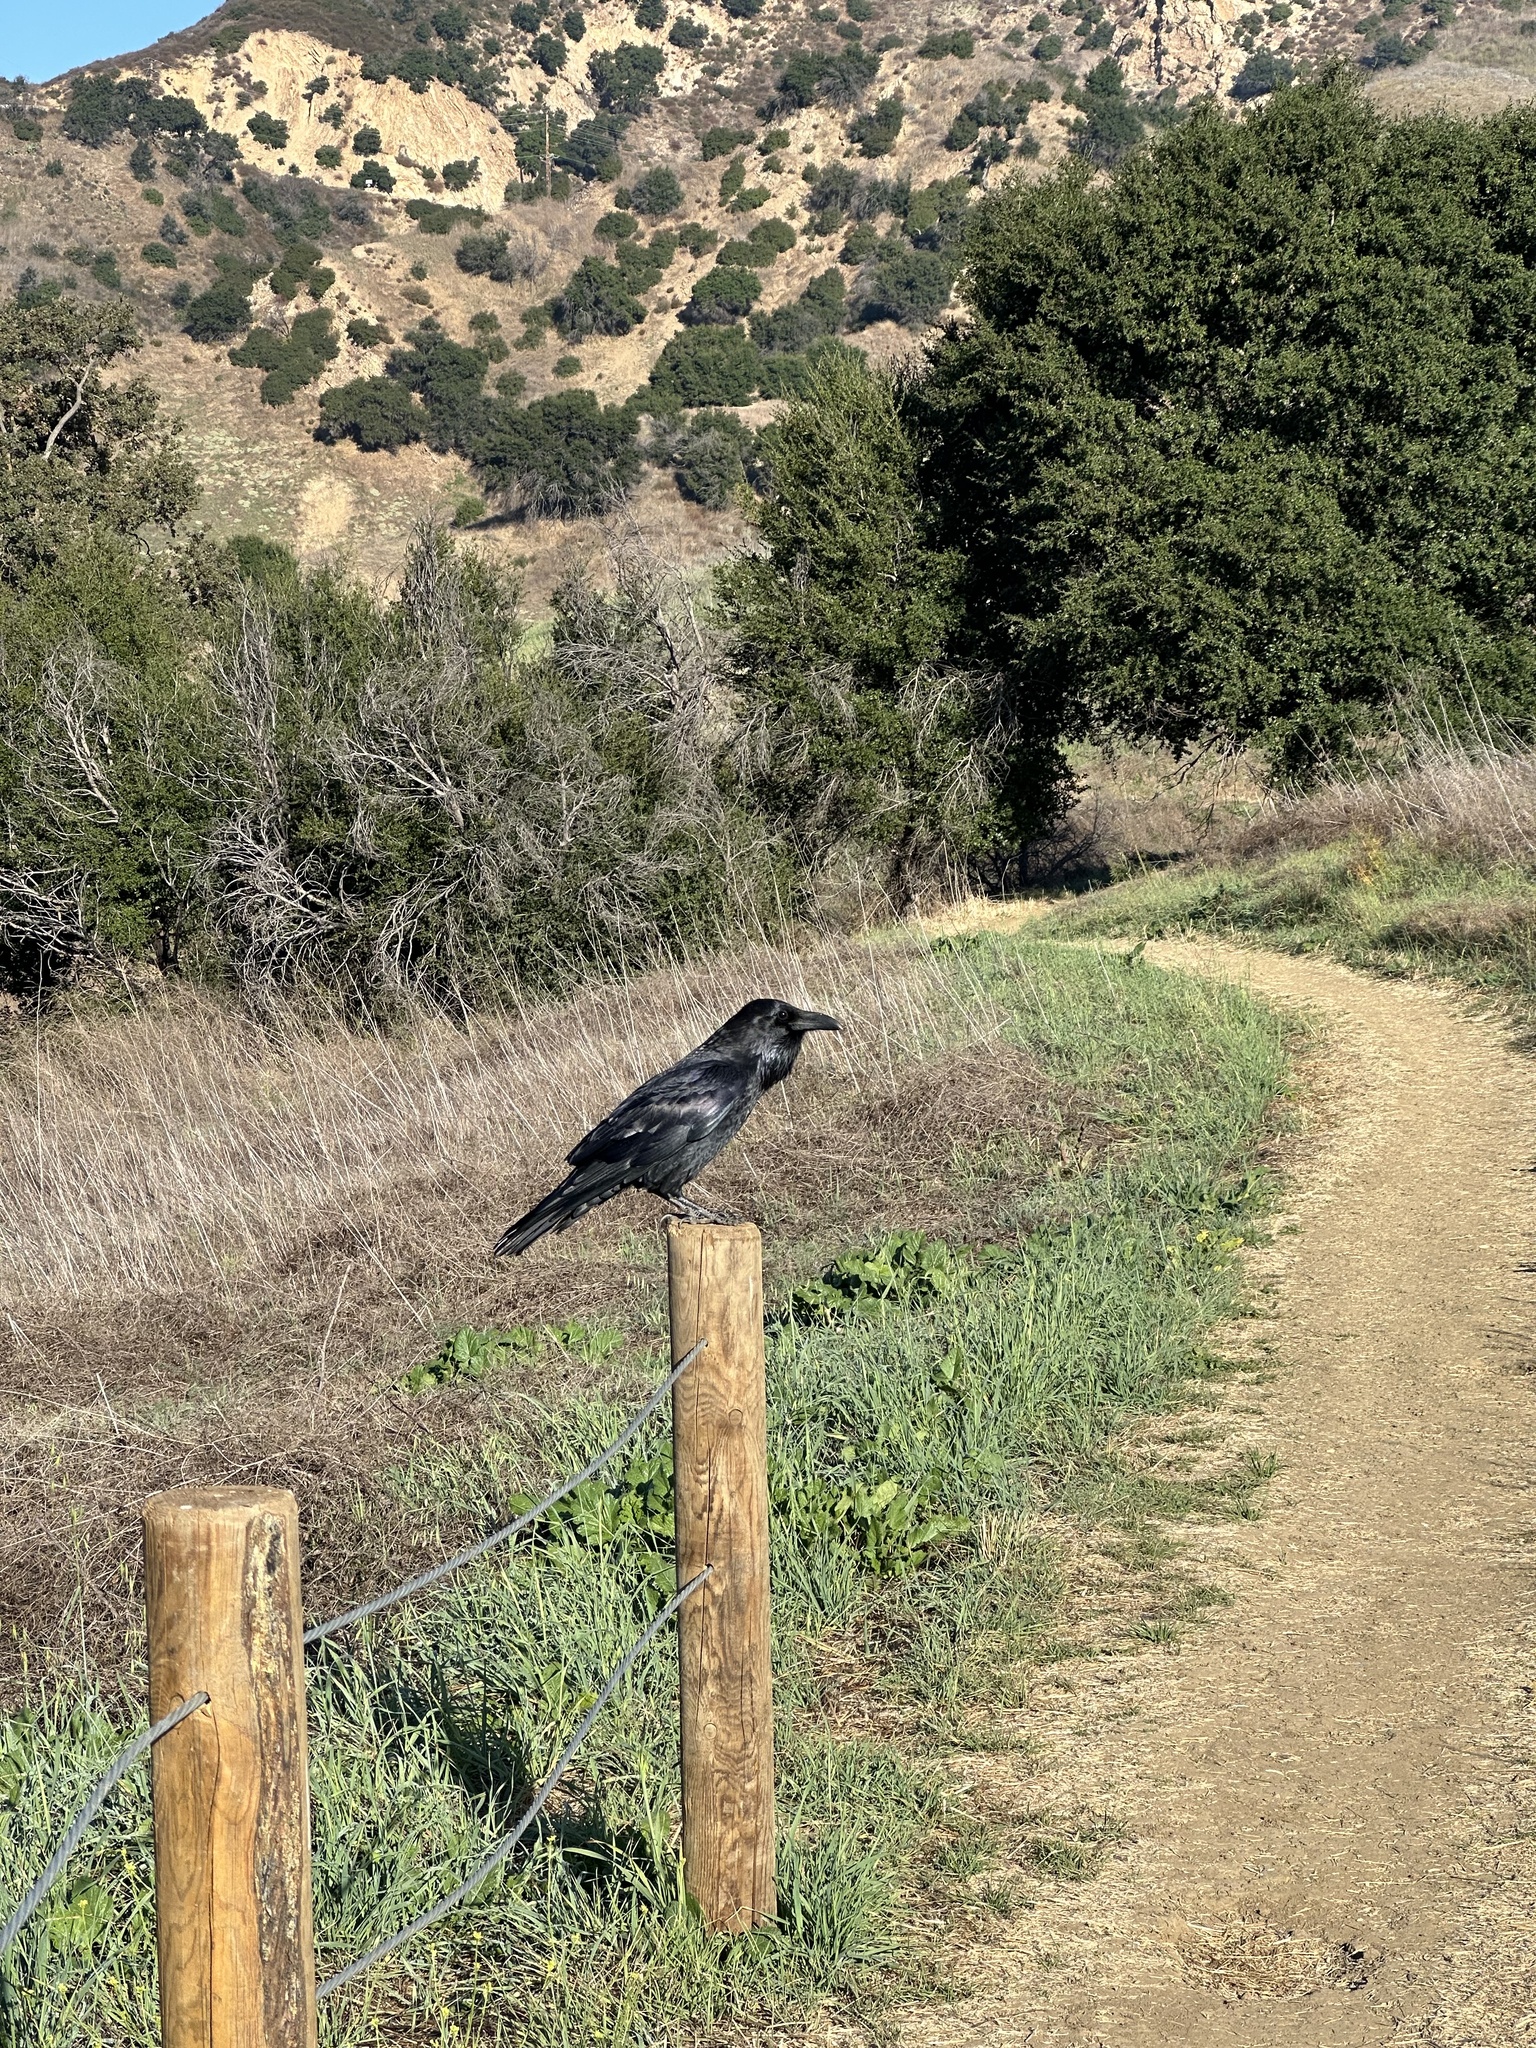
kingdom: Animalia
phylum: Chordata
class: Aves
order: Passeriformes
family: Corvidae
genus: Corvus
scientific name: Corvus corax
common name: Common raven
